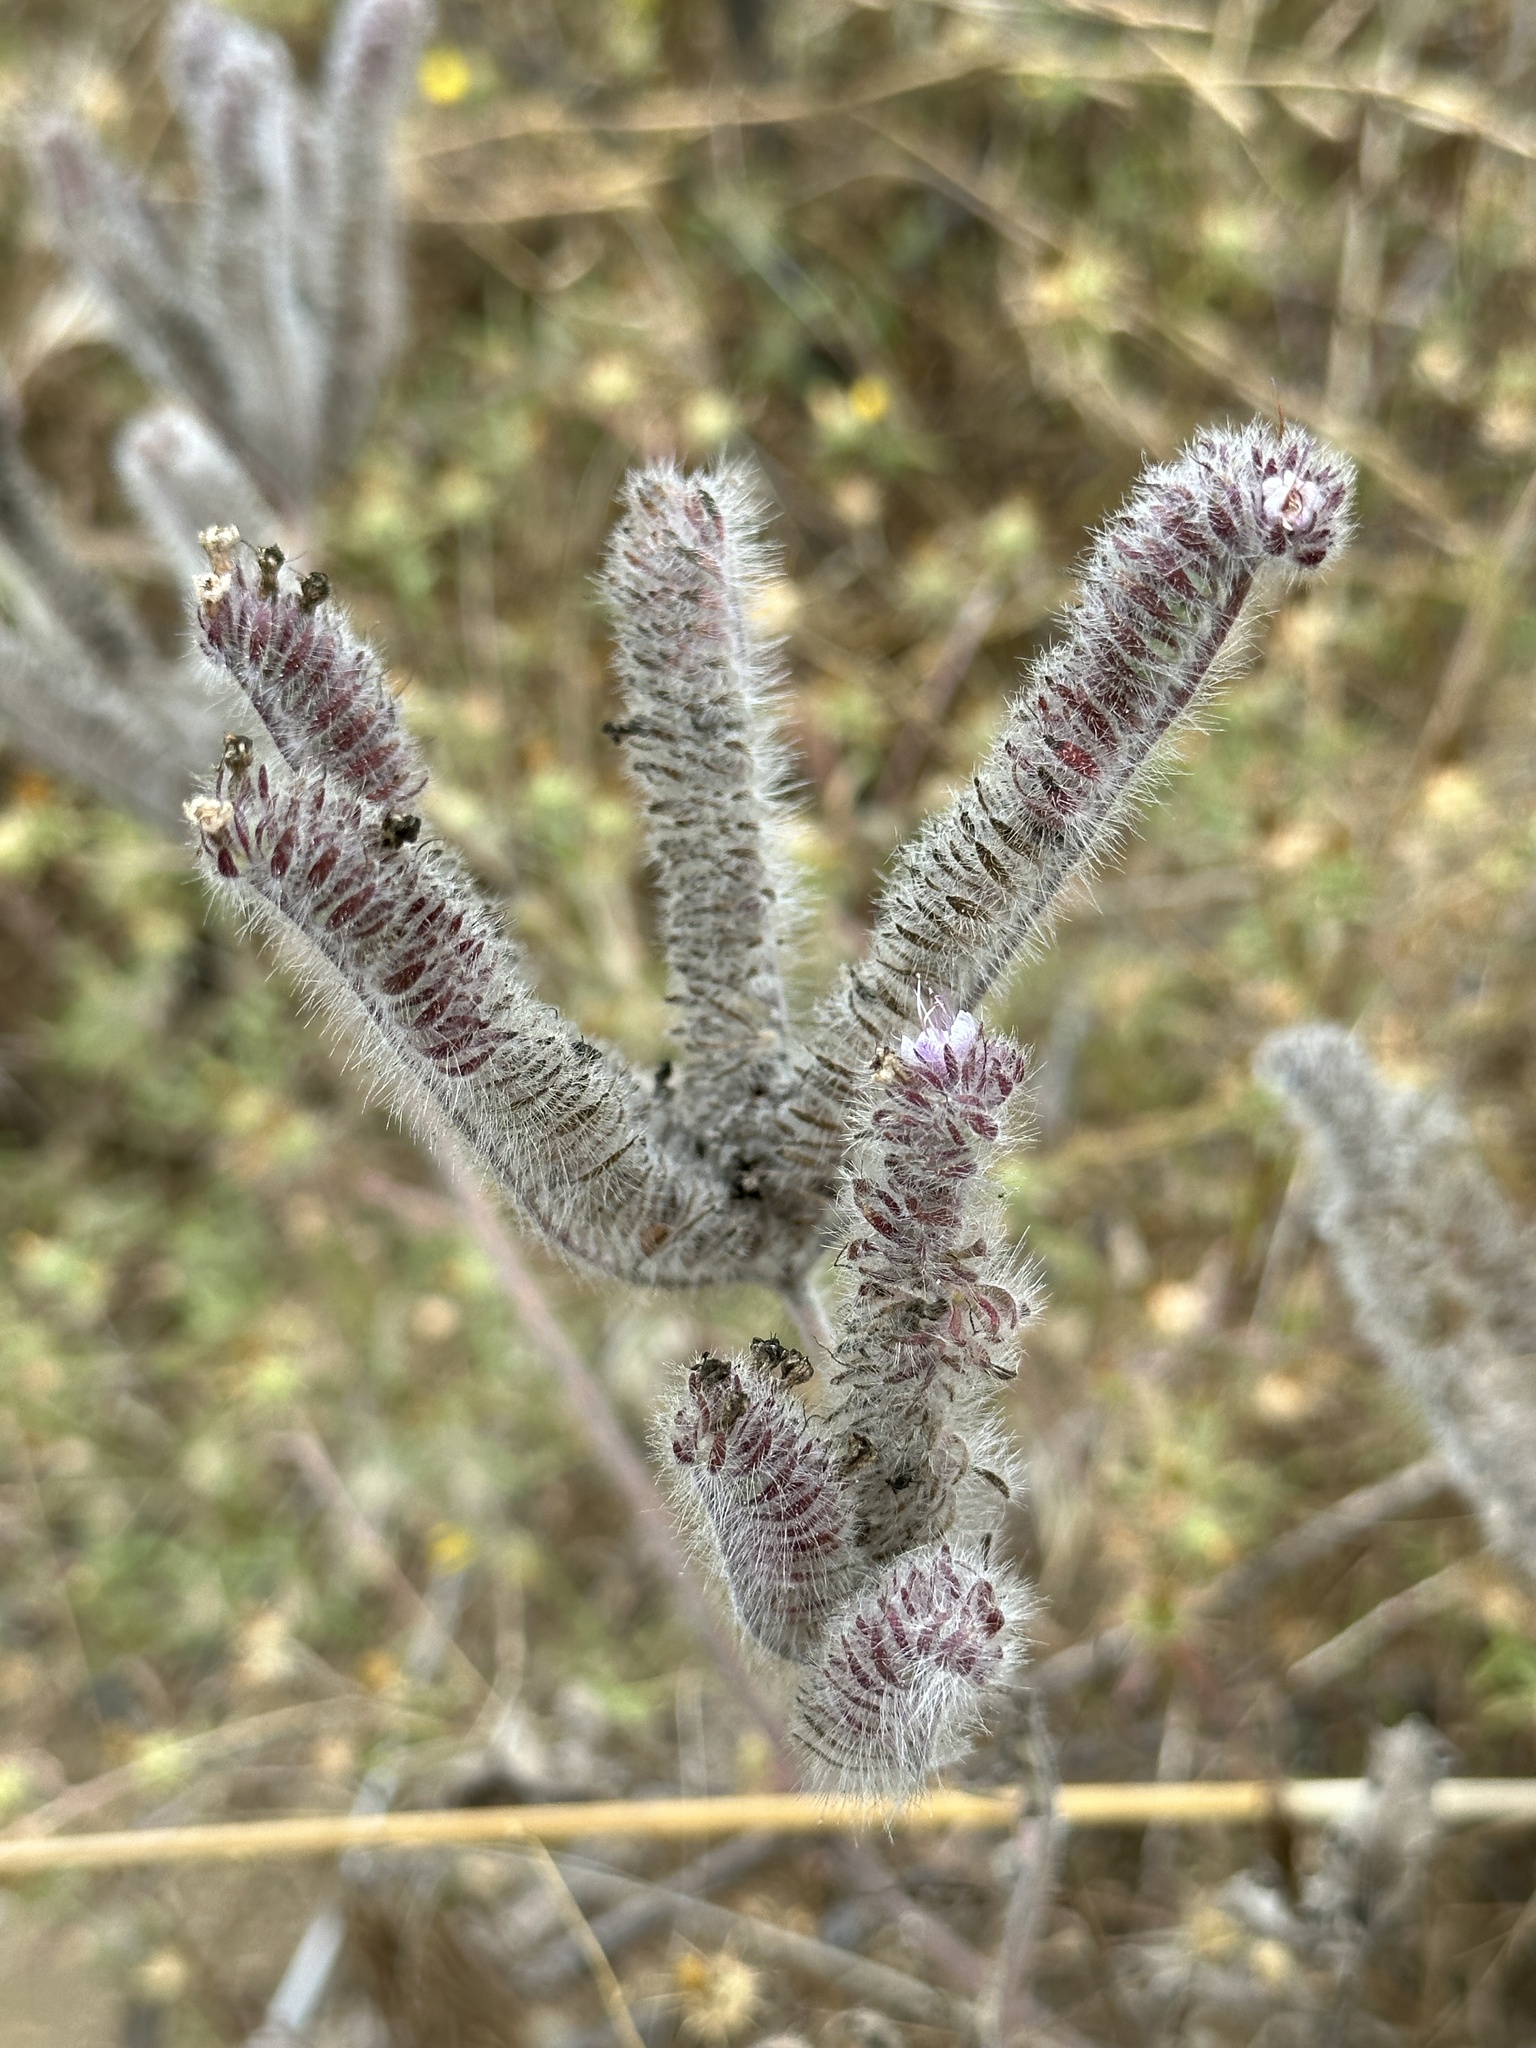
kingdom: Plantae
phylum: Tracheophyta
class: Magnoliopsida
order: Boraginales
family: Hydrophyllaceae
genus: Phacelia
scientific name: Phacelia hubbyi
